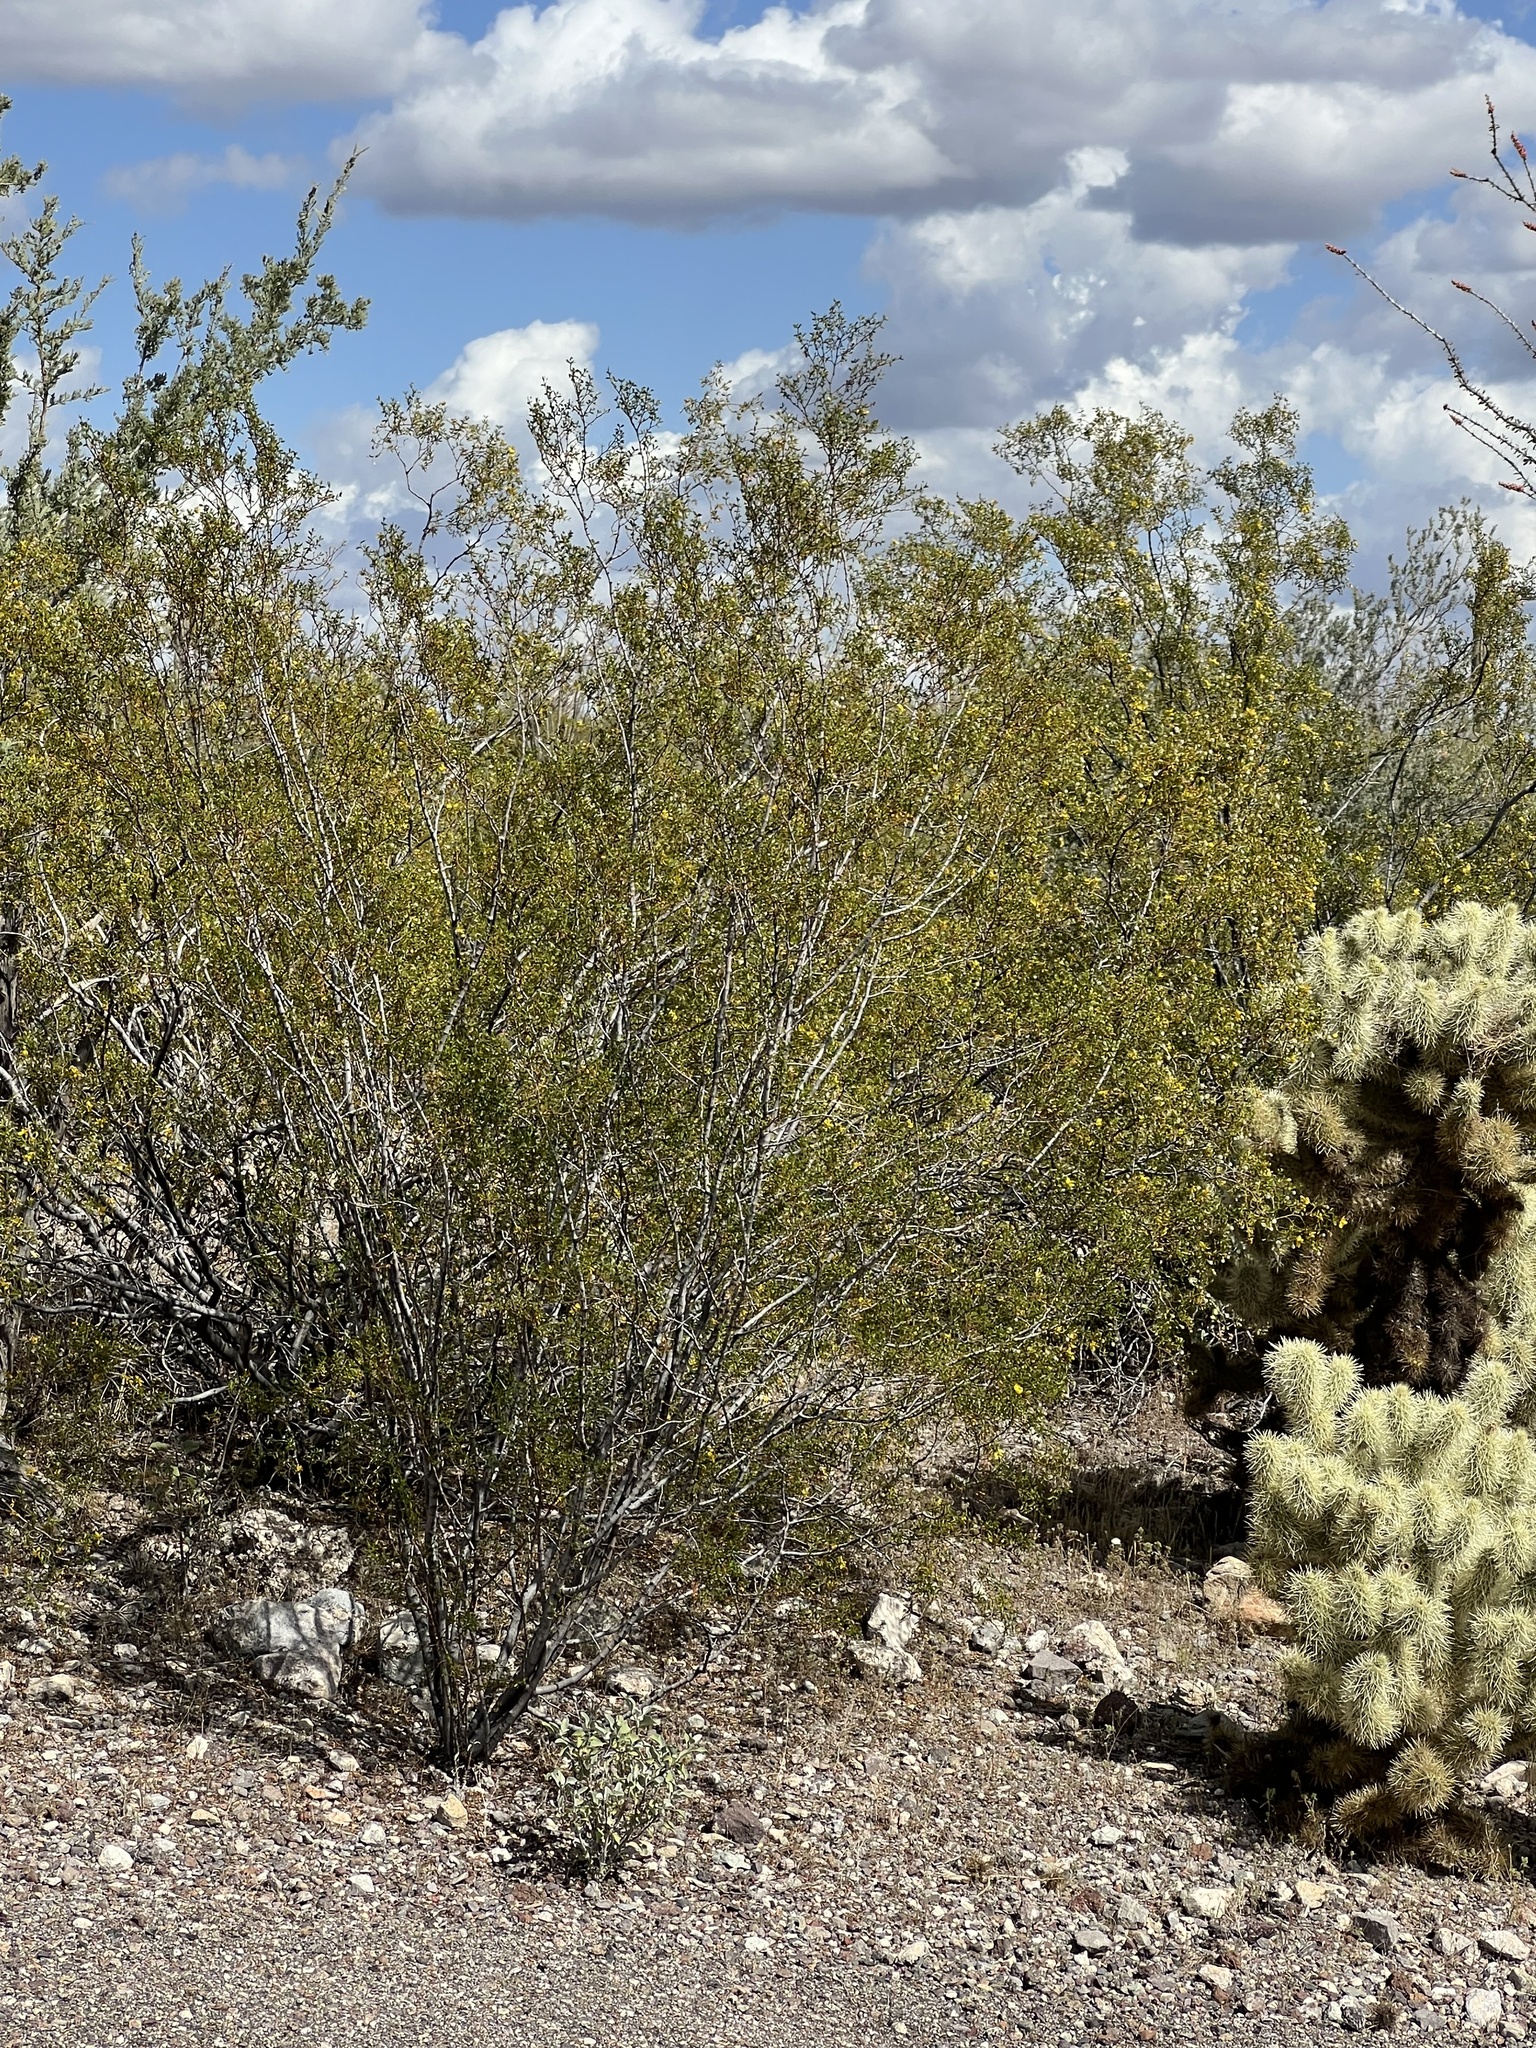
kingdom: Plantae
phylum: Tracheophyta
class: Magnoliopsida
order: Zygophyllales
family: Zygophyllaceae
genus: Larrea
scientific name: Larrea tridentata
